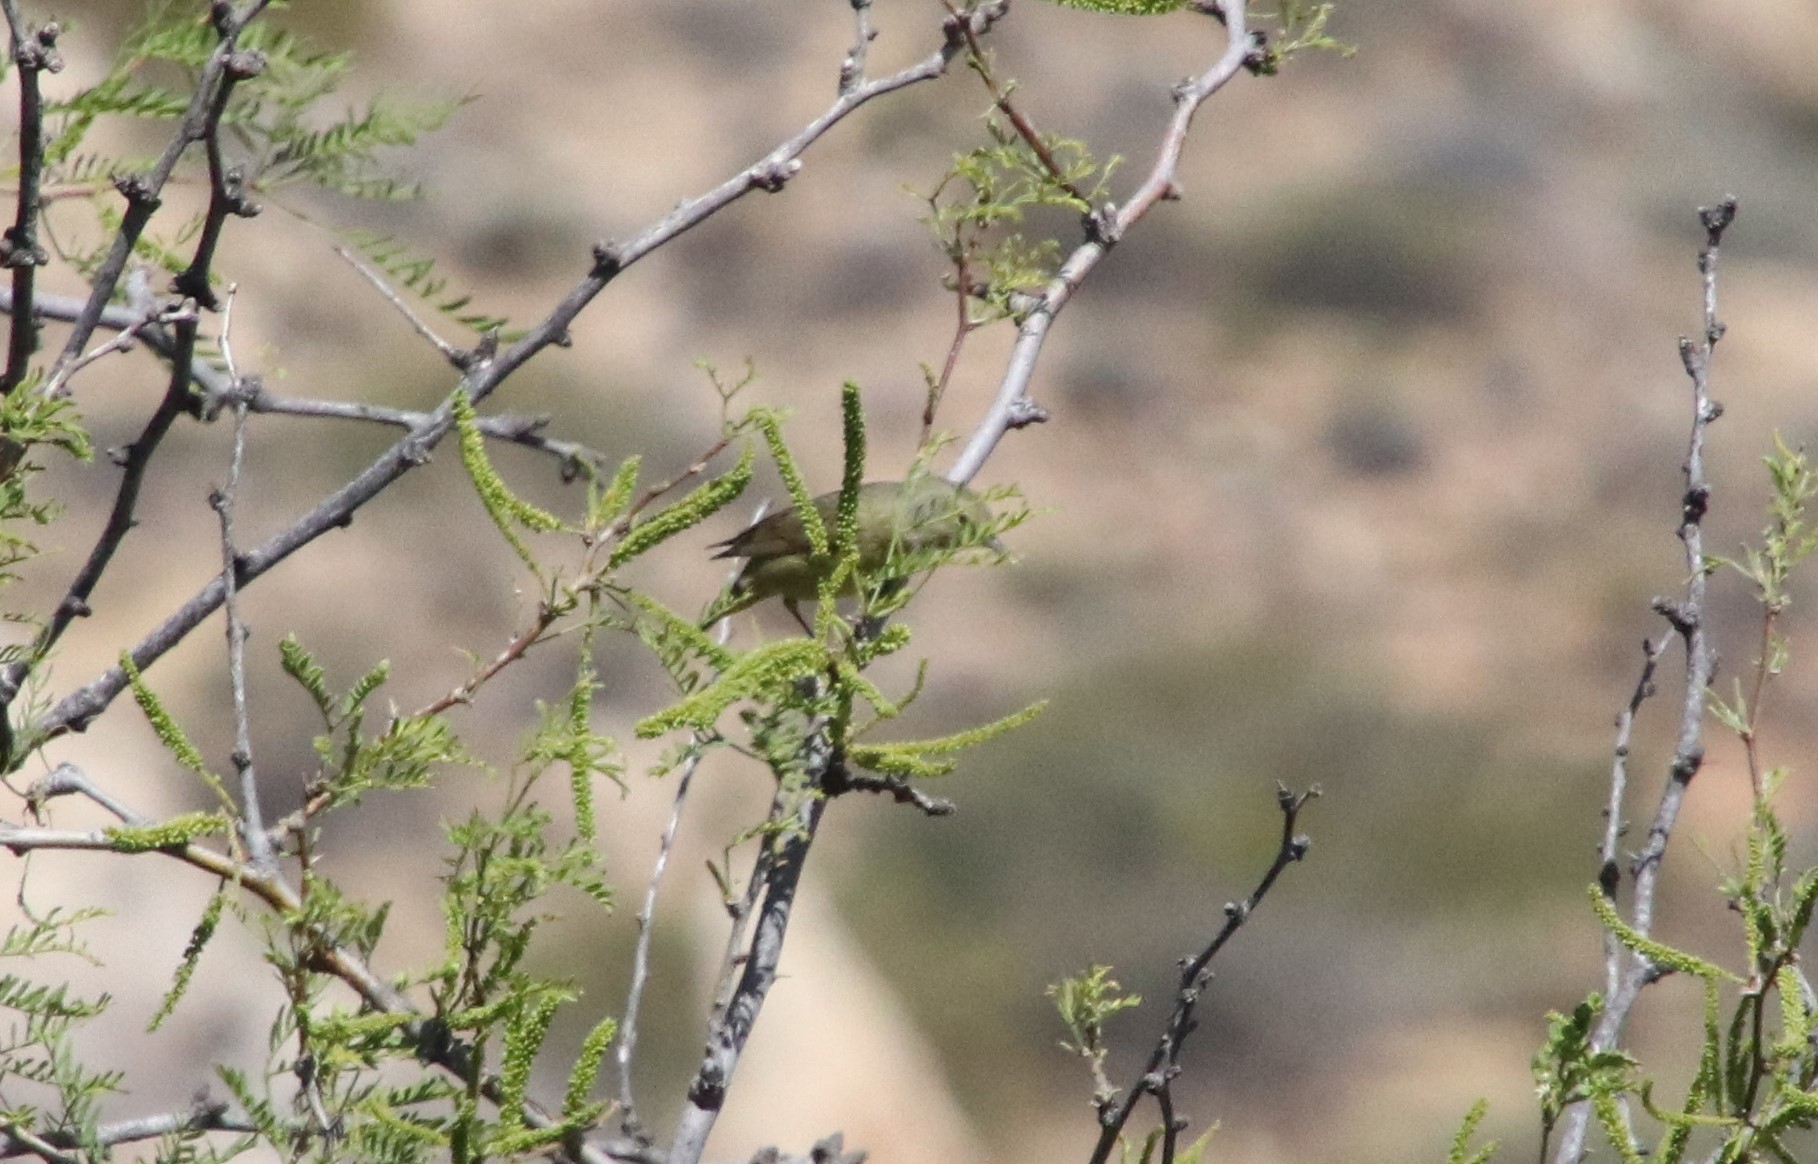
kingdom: Animalia
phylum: Chordata
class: Aves
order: Passeriformes
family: Parulidae
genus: Leiothlypis
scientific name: Leiothlypis celata
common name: Orange-crowned warbler
